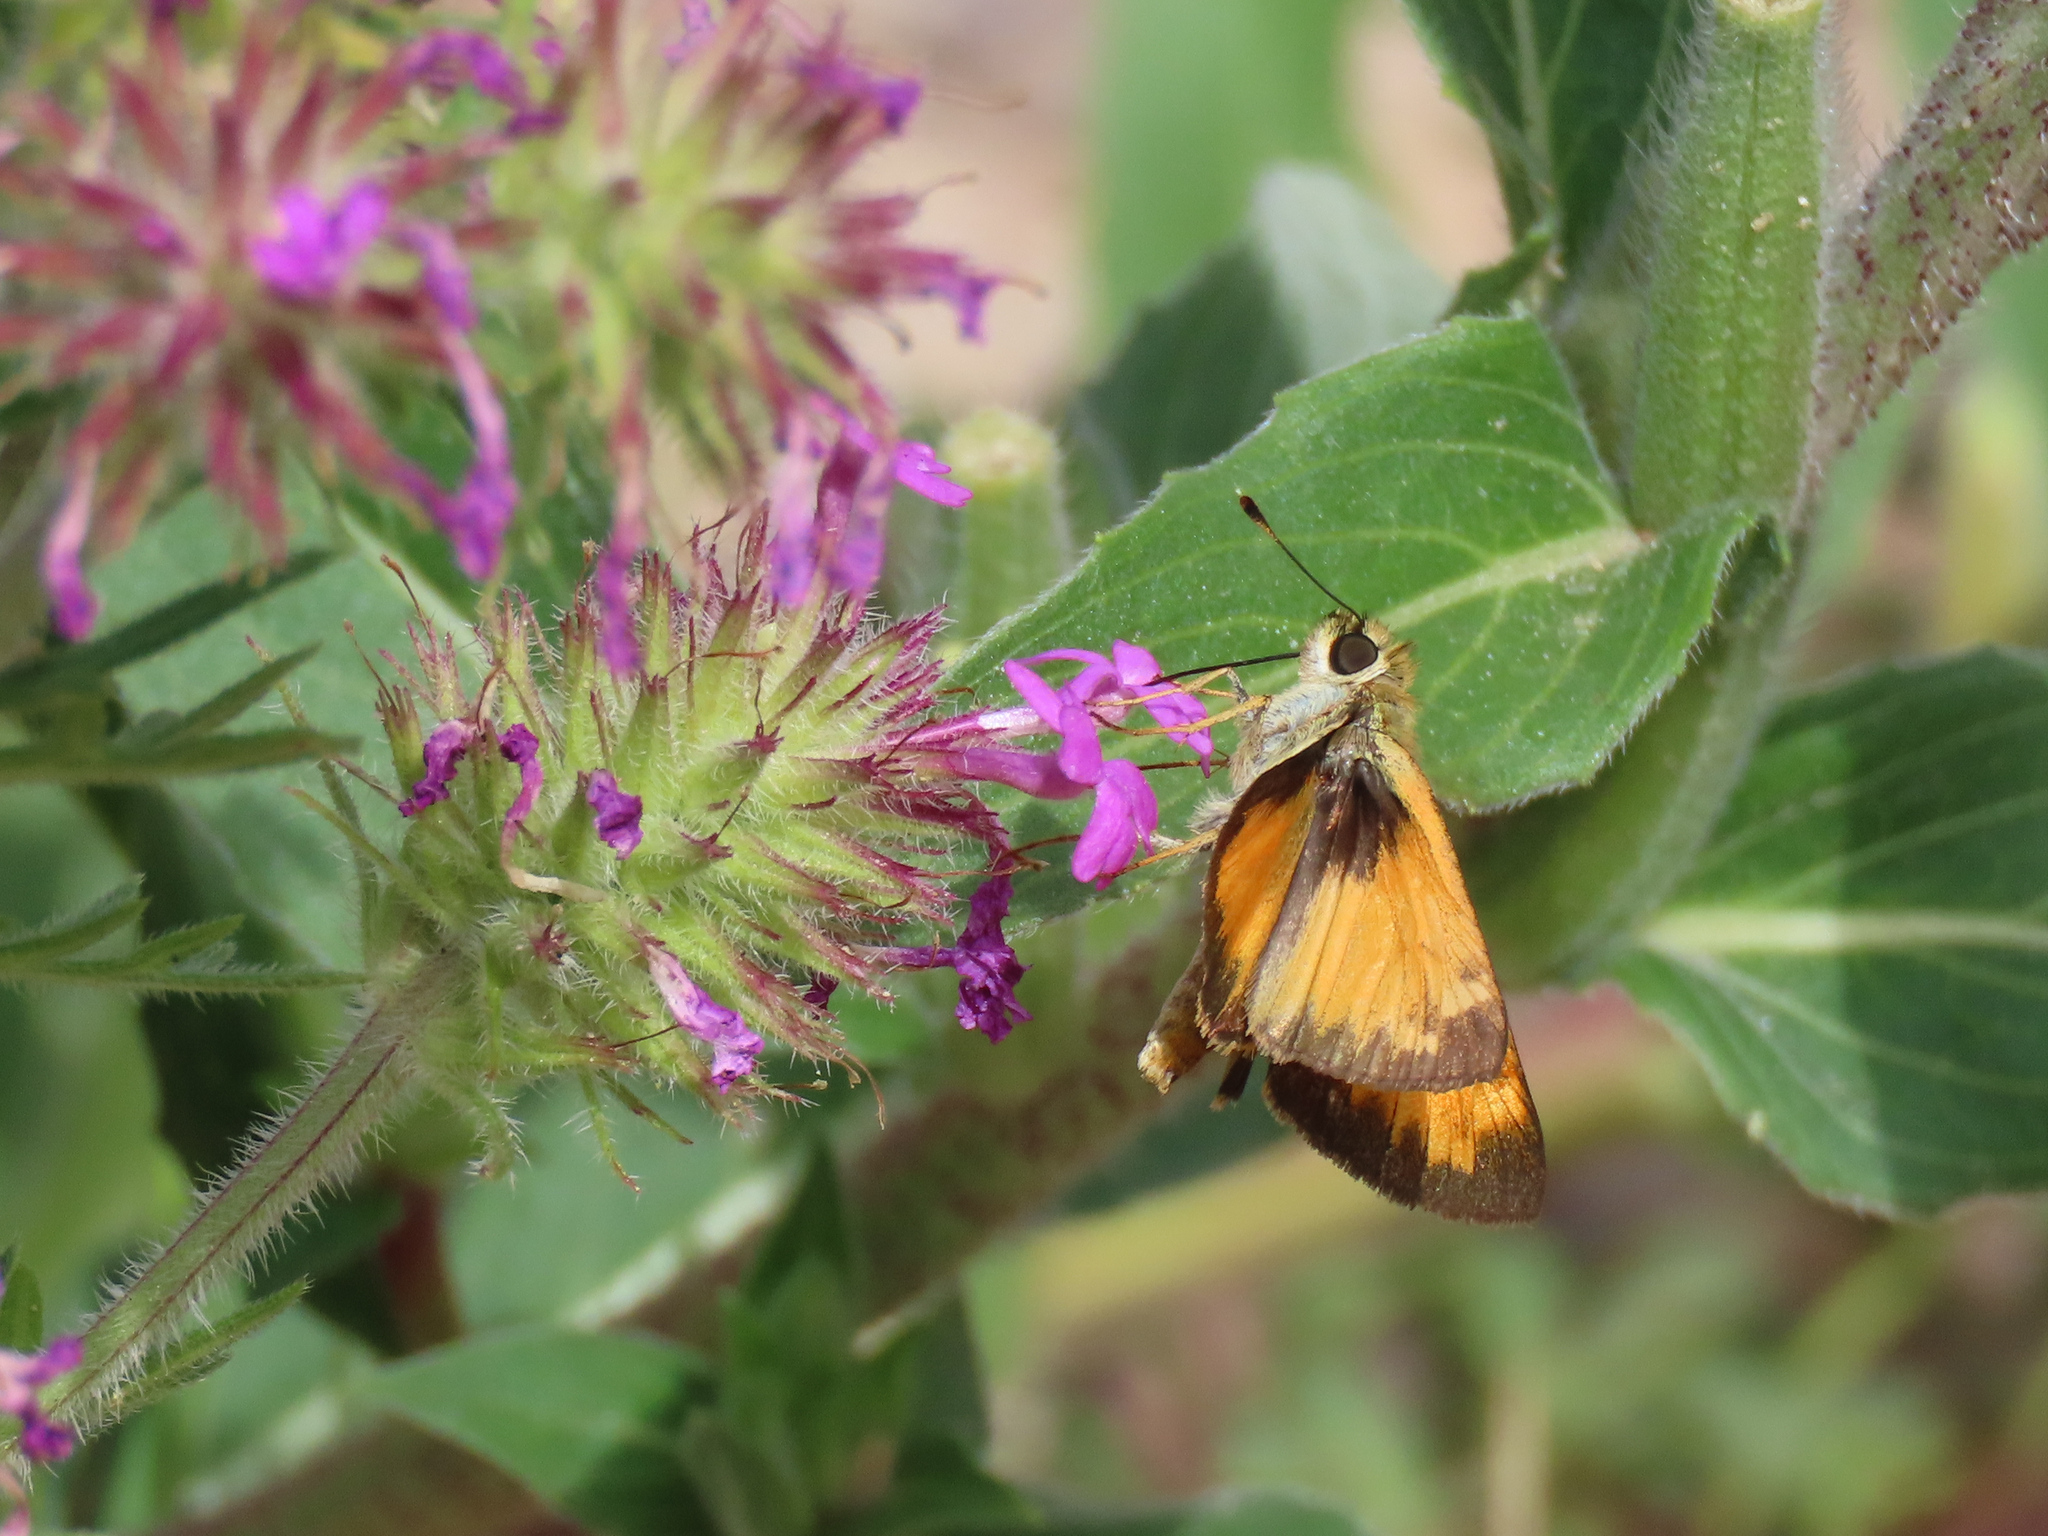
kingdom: Animalia
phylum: Arthropoda
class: Insecta
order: Lepidoptera
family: Hesperiidae
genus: Lon
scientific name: Lon taxiles
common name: Taxiles skipper
